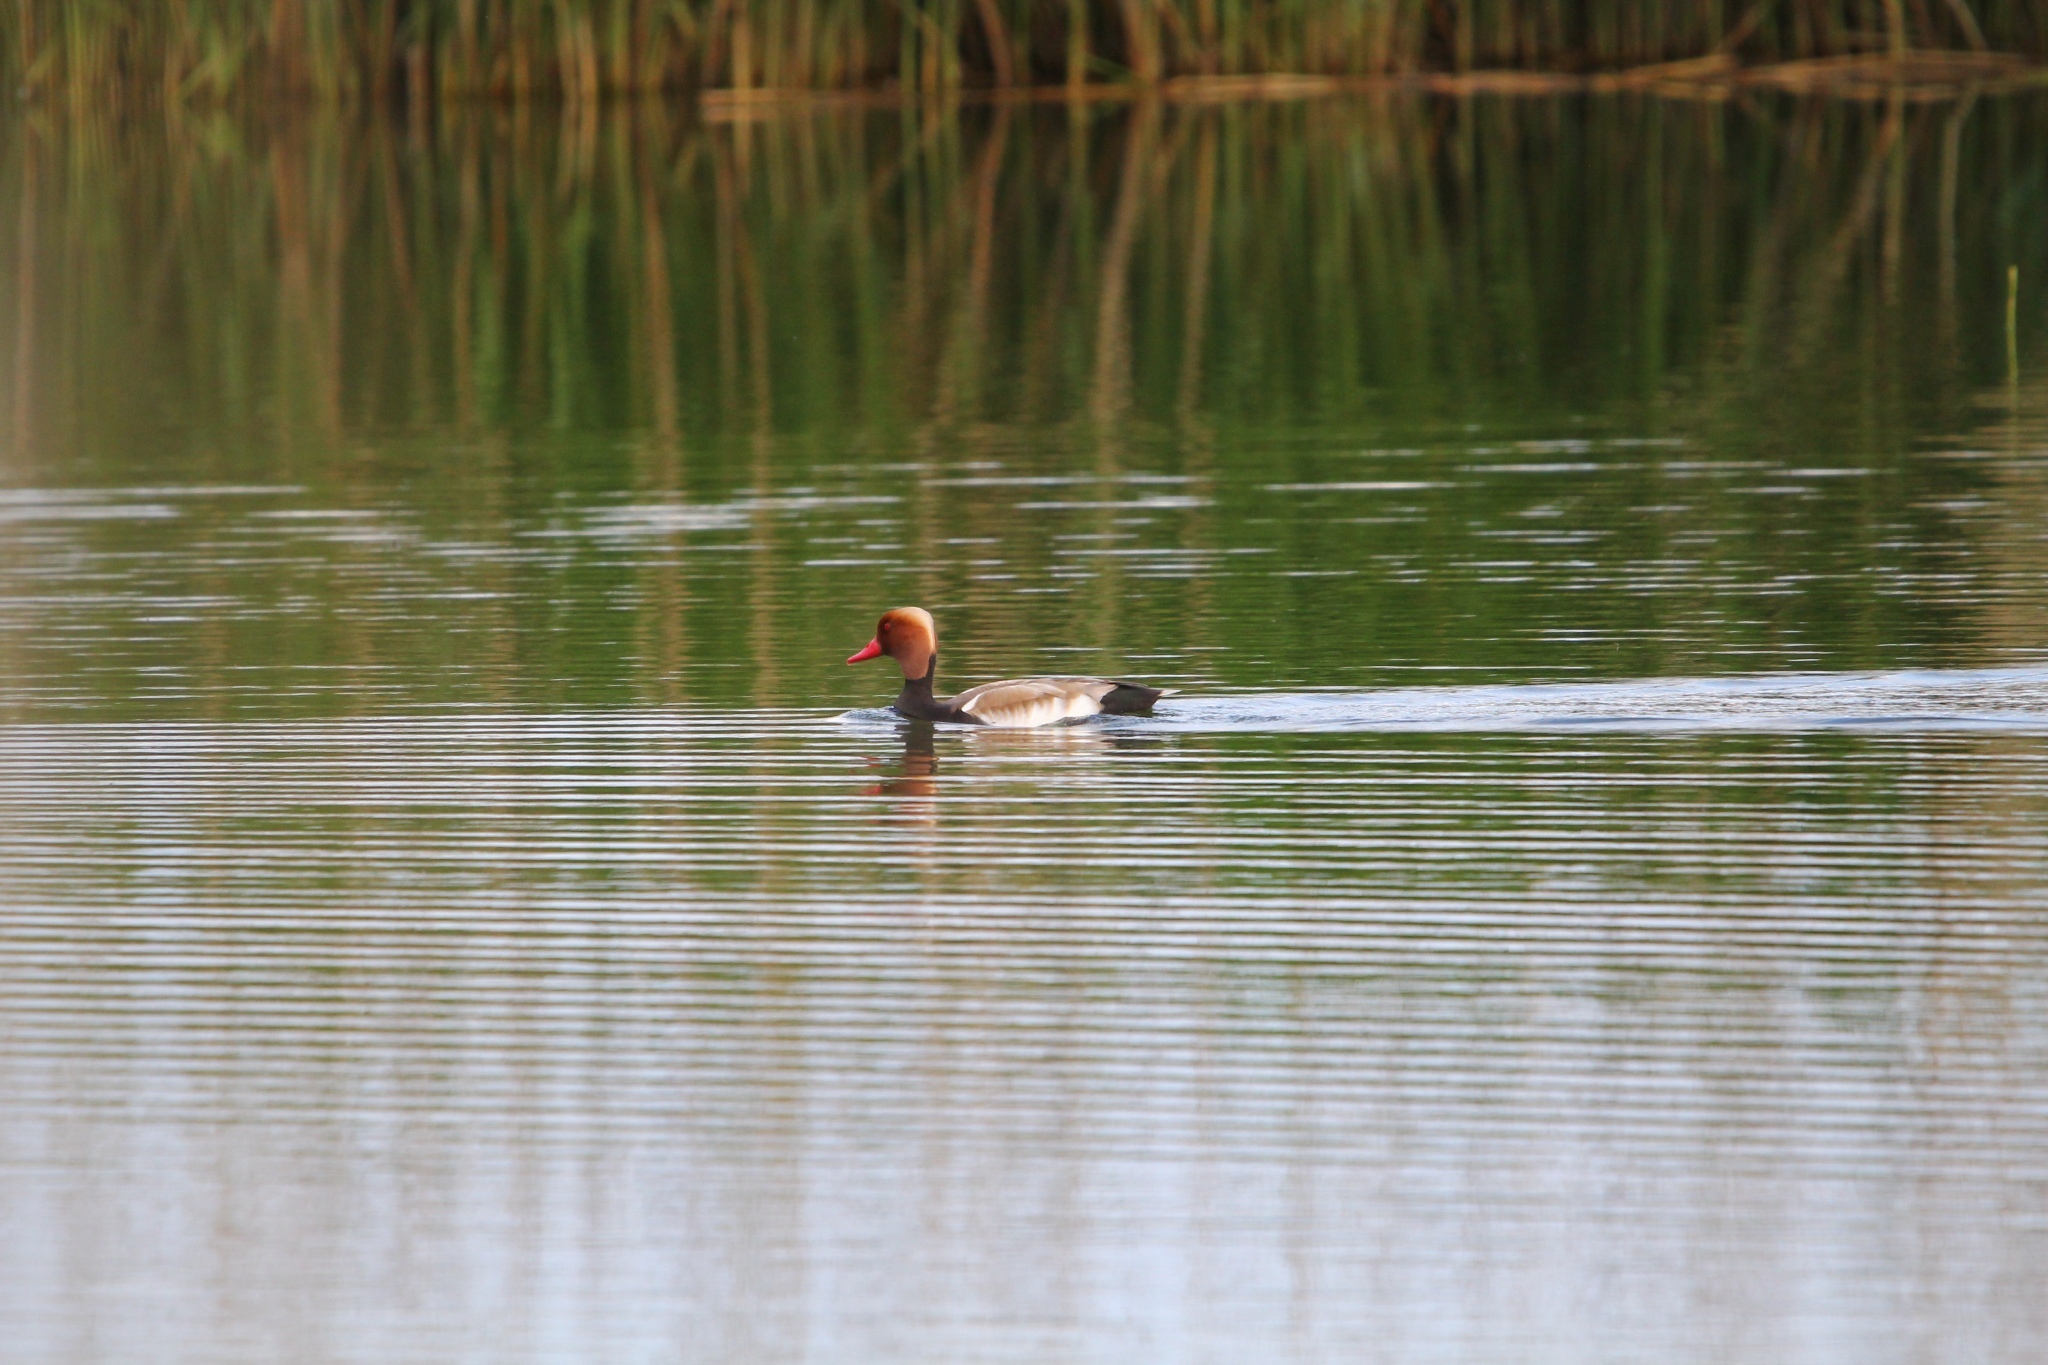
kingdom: Animalia
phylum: Chordata
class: Aves
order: Anseriformes
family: Anatidae
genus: Netta
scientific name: Netta rufina
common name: Red-crested pochard
